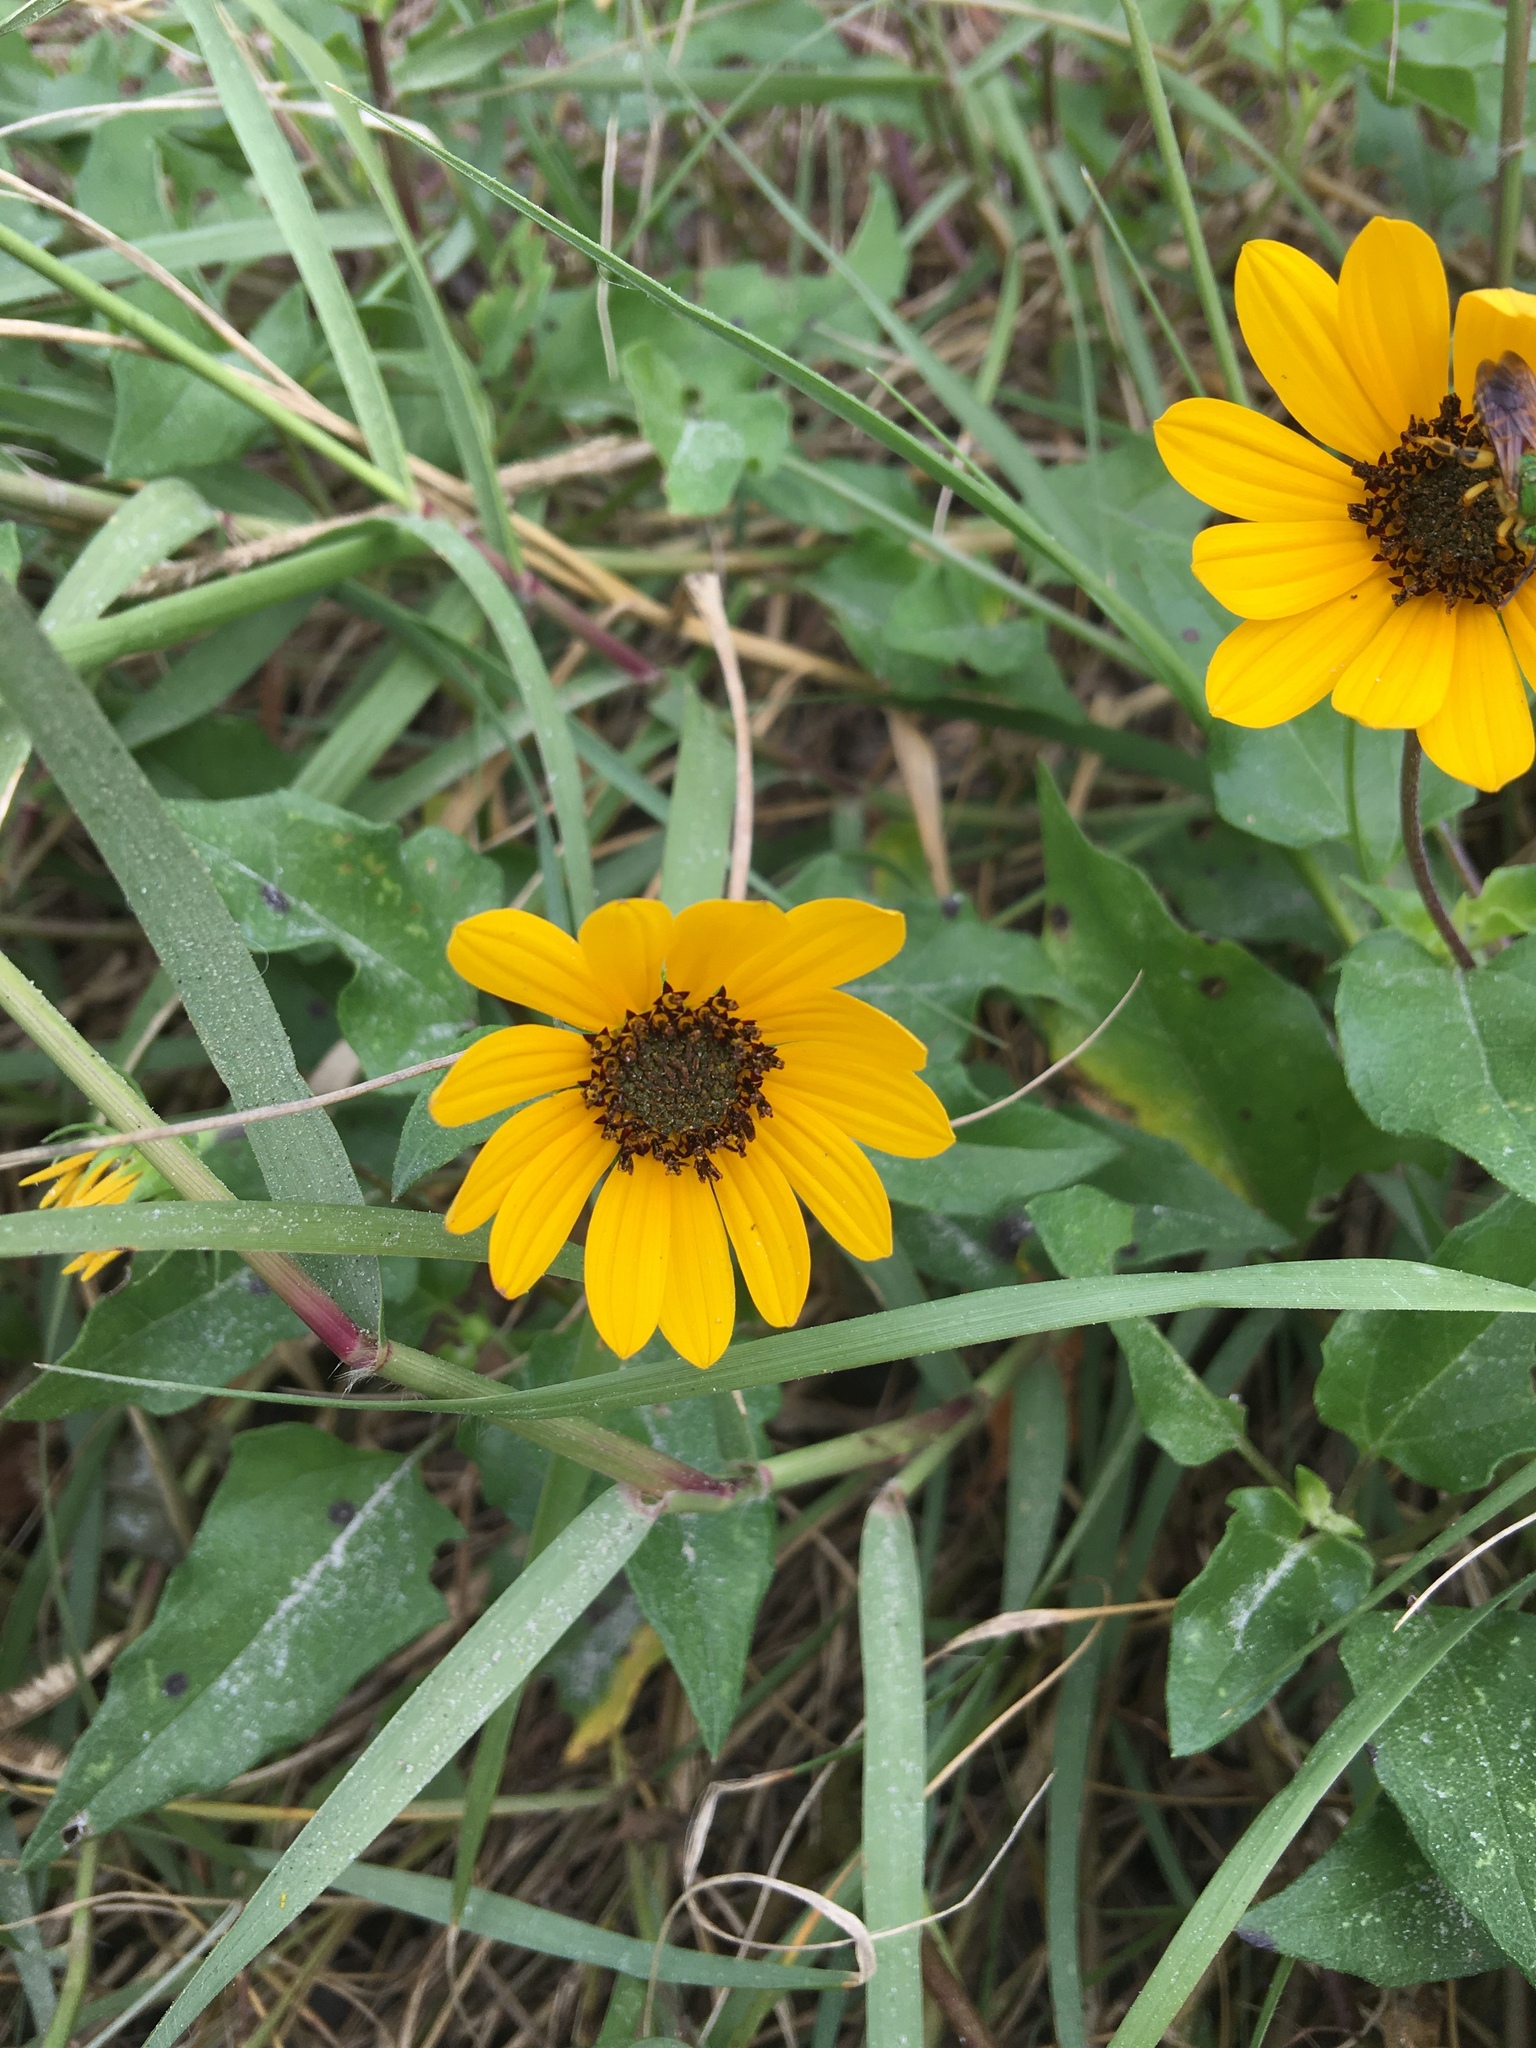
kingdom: Plantae
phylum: Tracheophyta
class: Magnoliopsida
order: Asterales
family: Asteraceae
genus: Helianthus
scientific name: Helianthus debilis
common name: Weak sunflower
